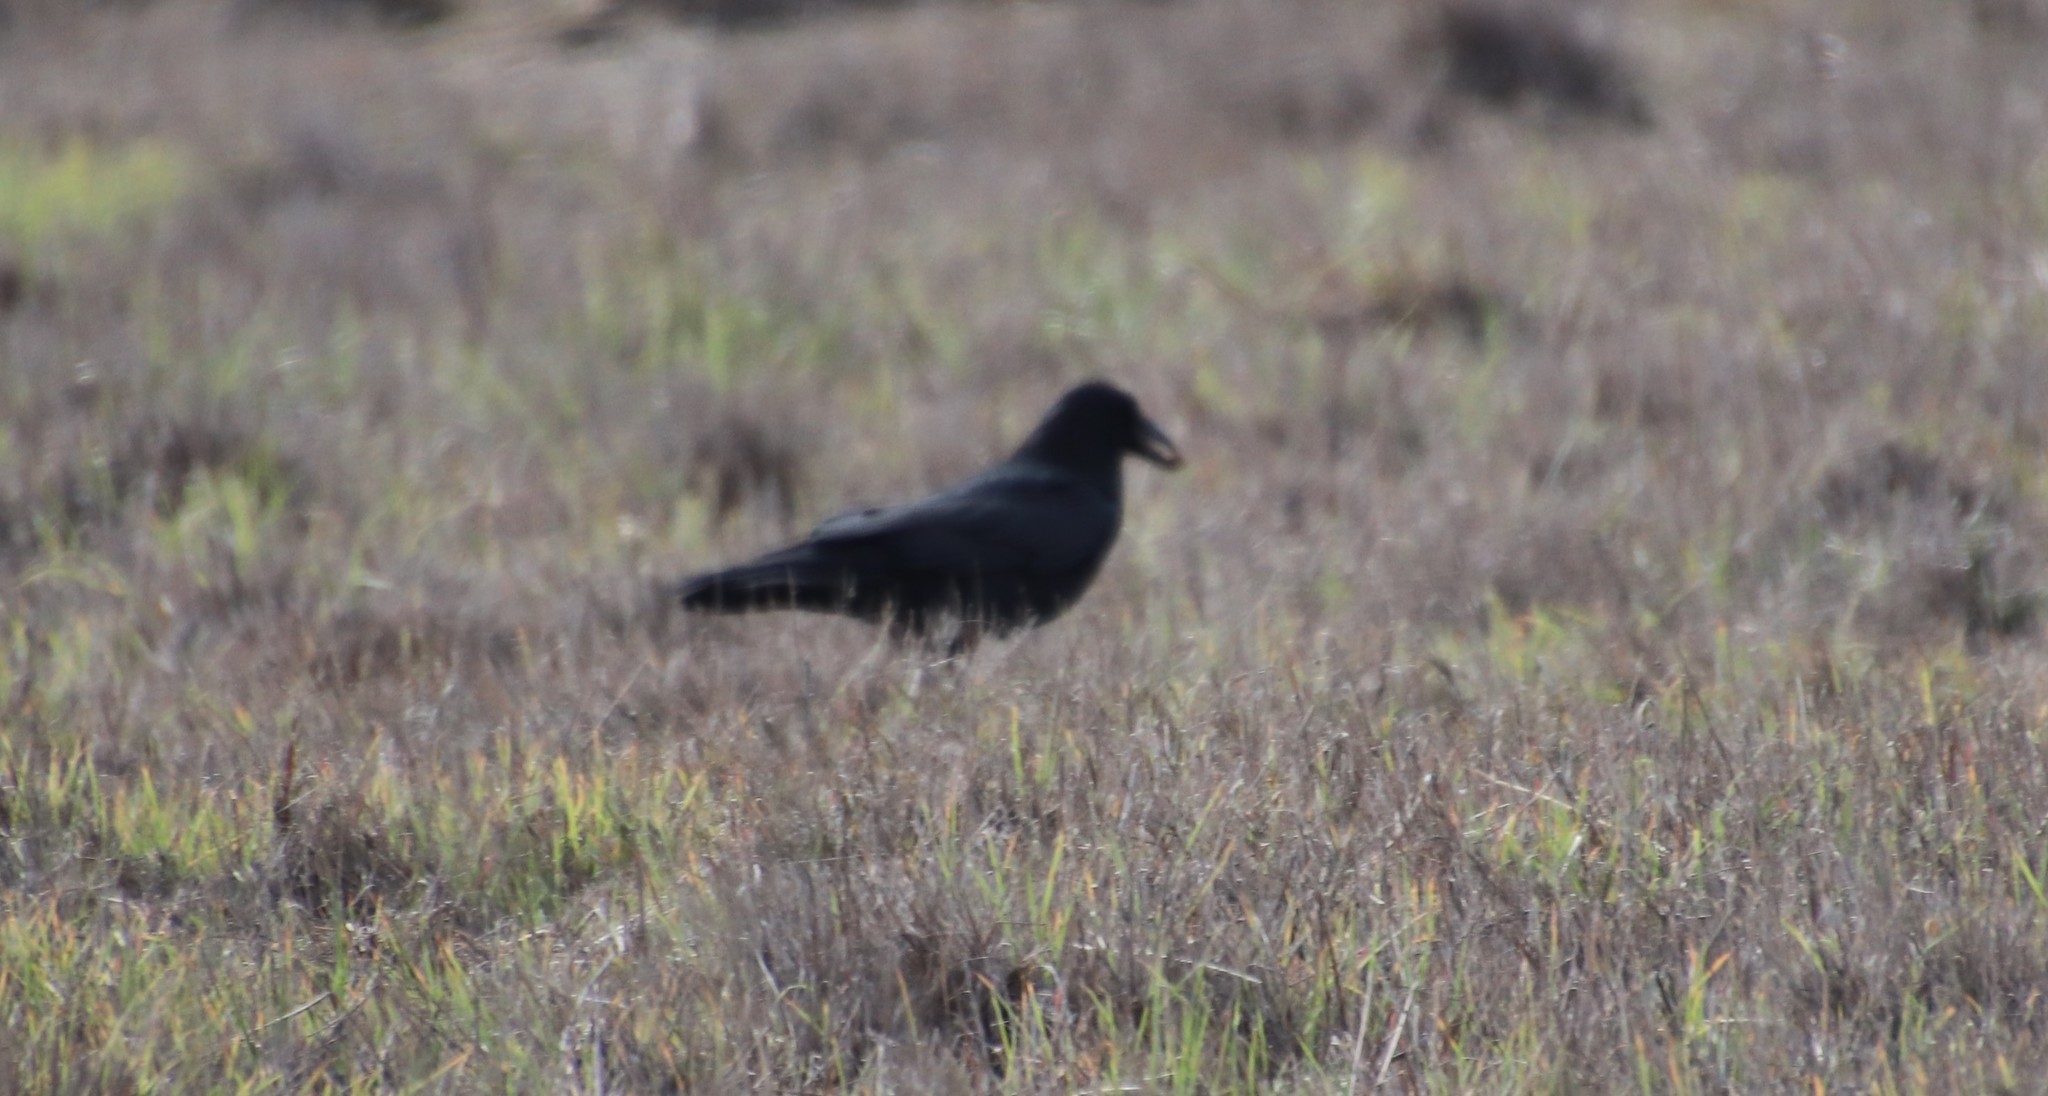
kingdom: Animalia
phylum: Chordata
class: Aves
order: Passeriformes
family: Corvidae
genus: Corvus
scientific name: Corvus corax
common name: Common raven
